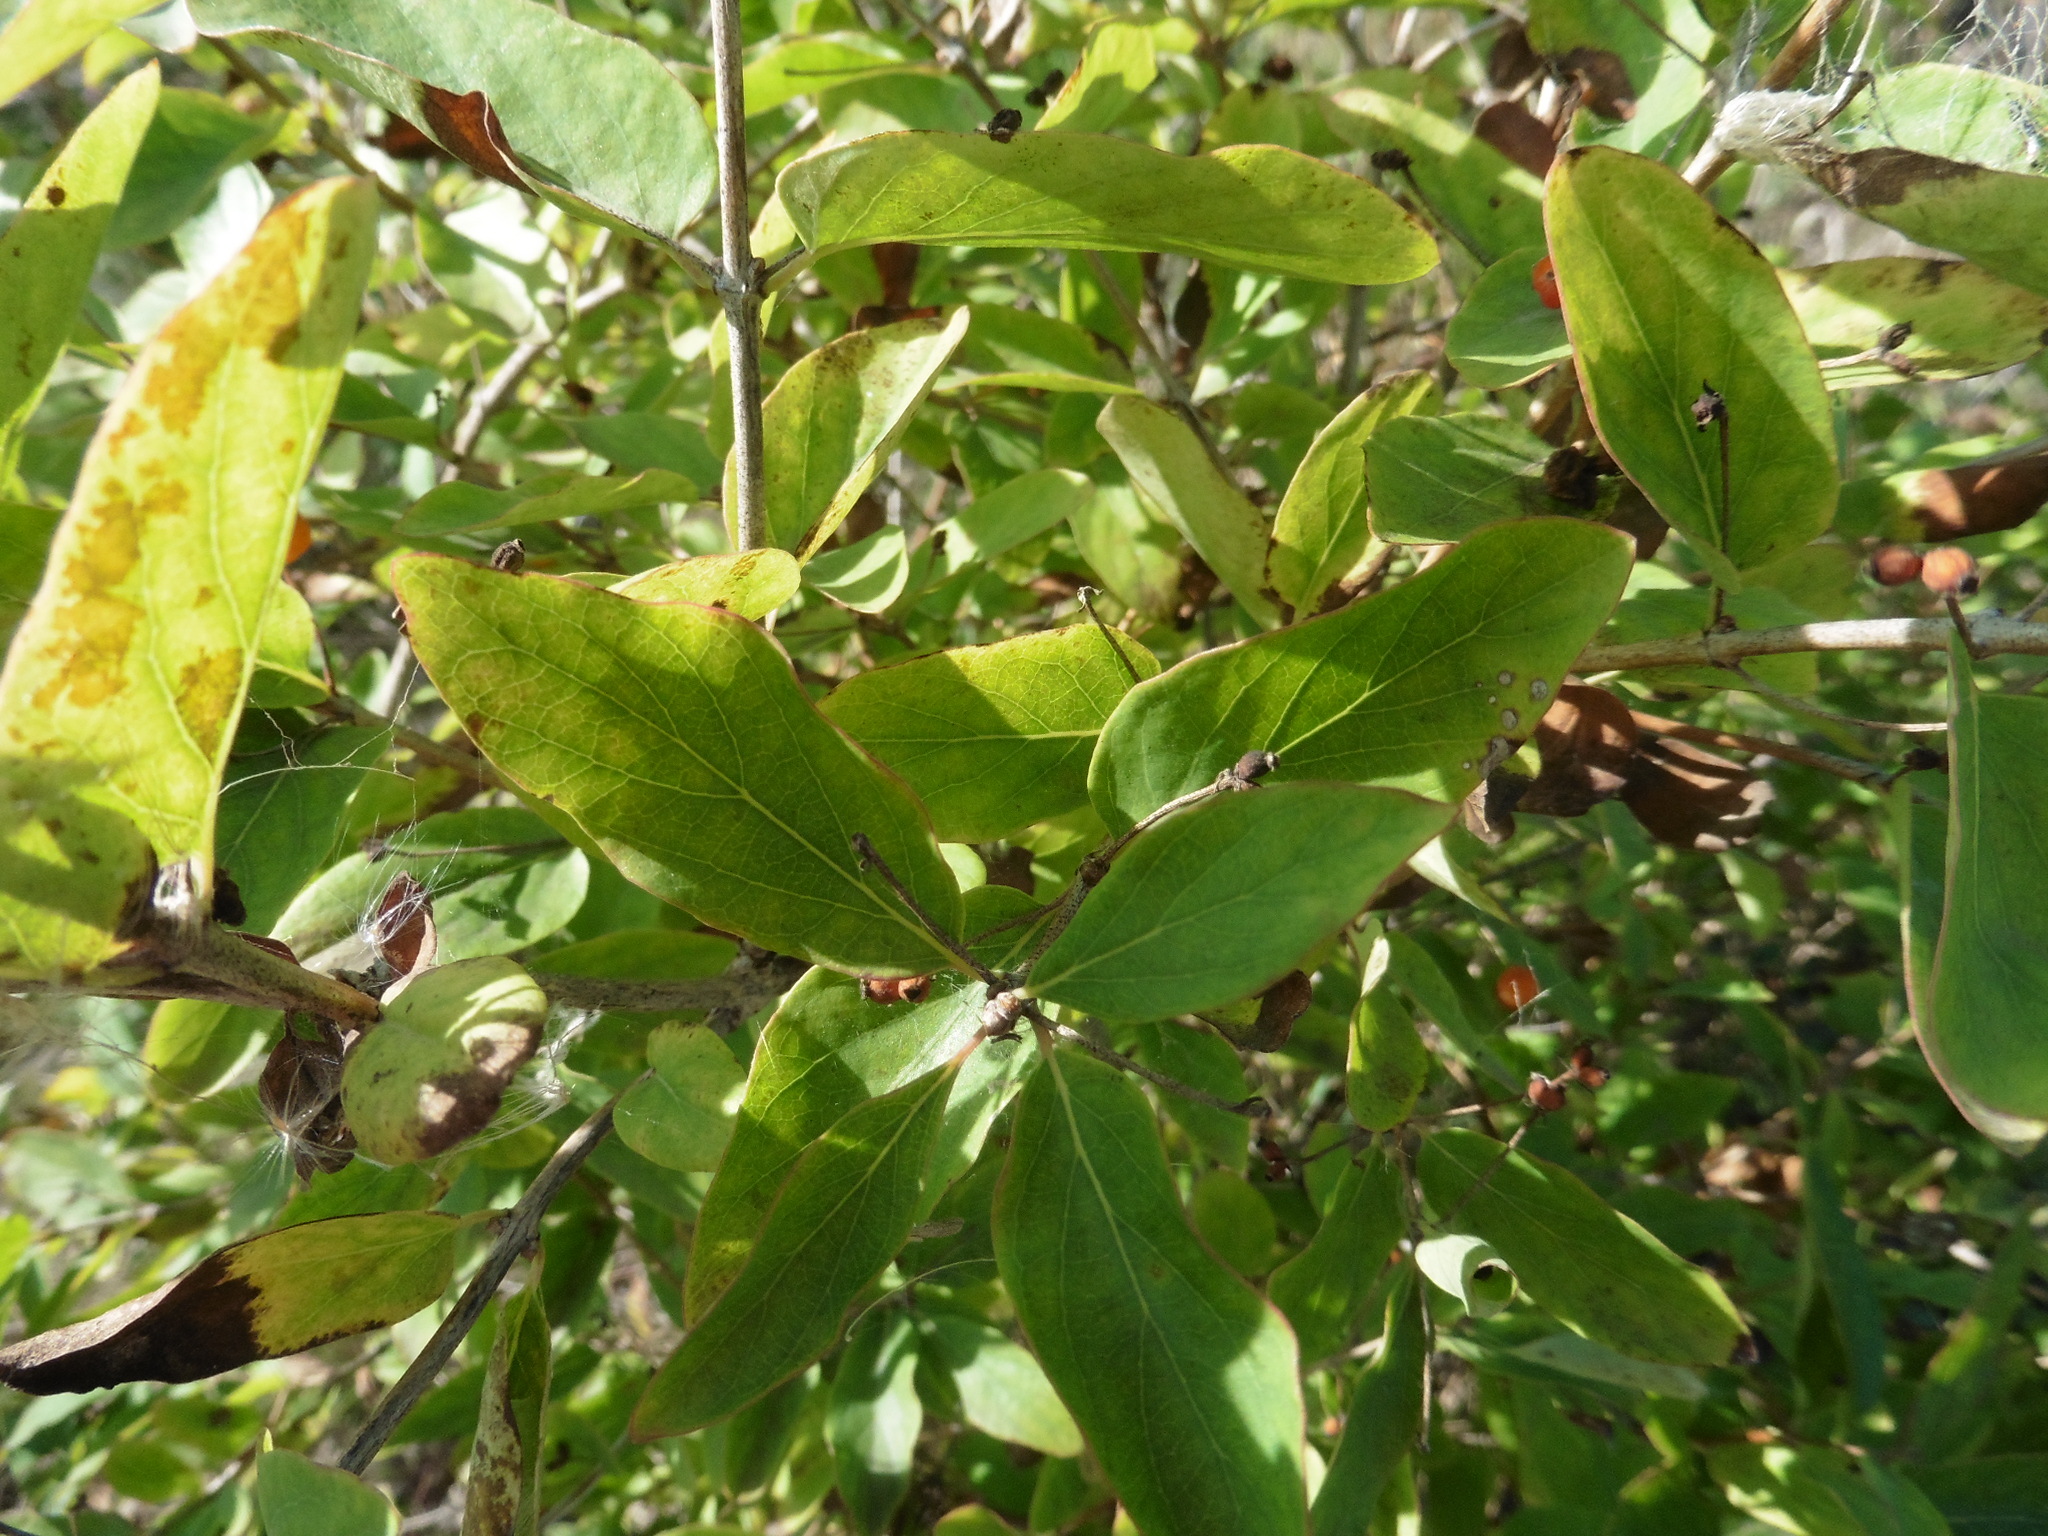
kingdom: Plantae
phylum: Tracheophyta
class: Magnoliopsida
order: Dipsacales
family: Caprifoliaceae
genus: Lonicera
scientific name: Lonicera tatarica
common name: Tatarian honeysuckle
